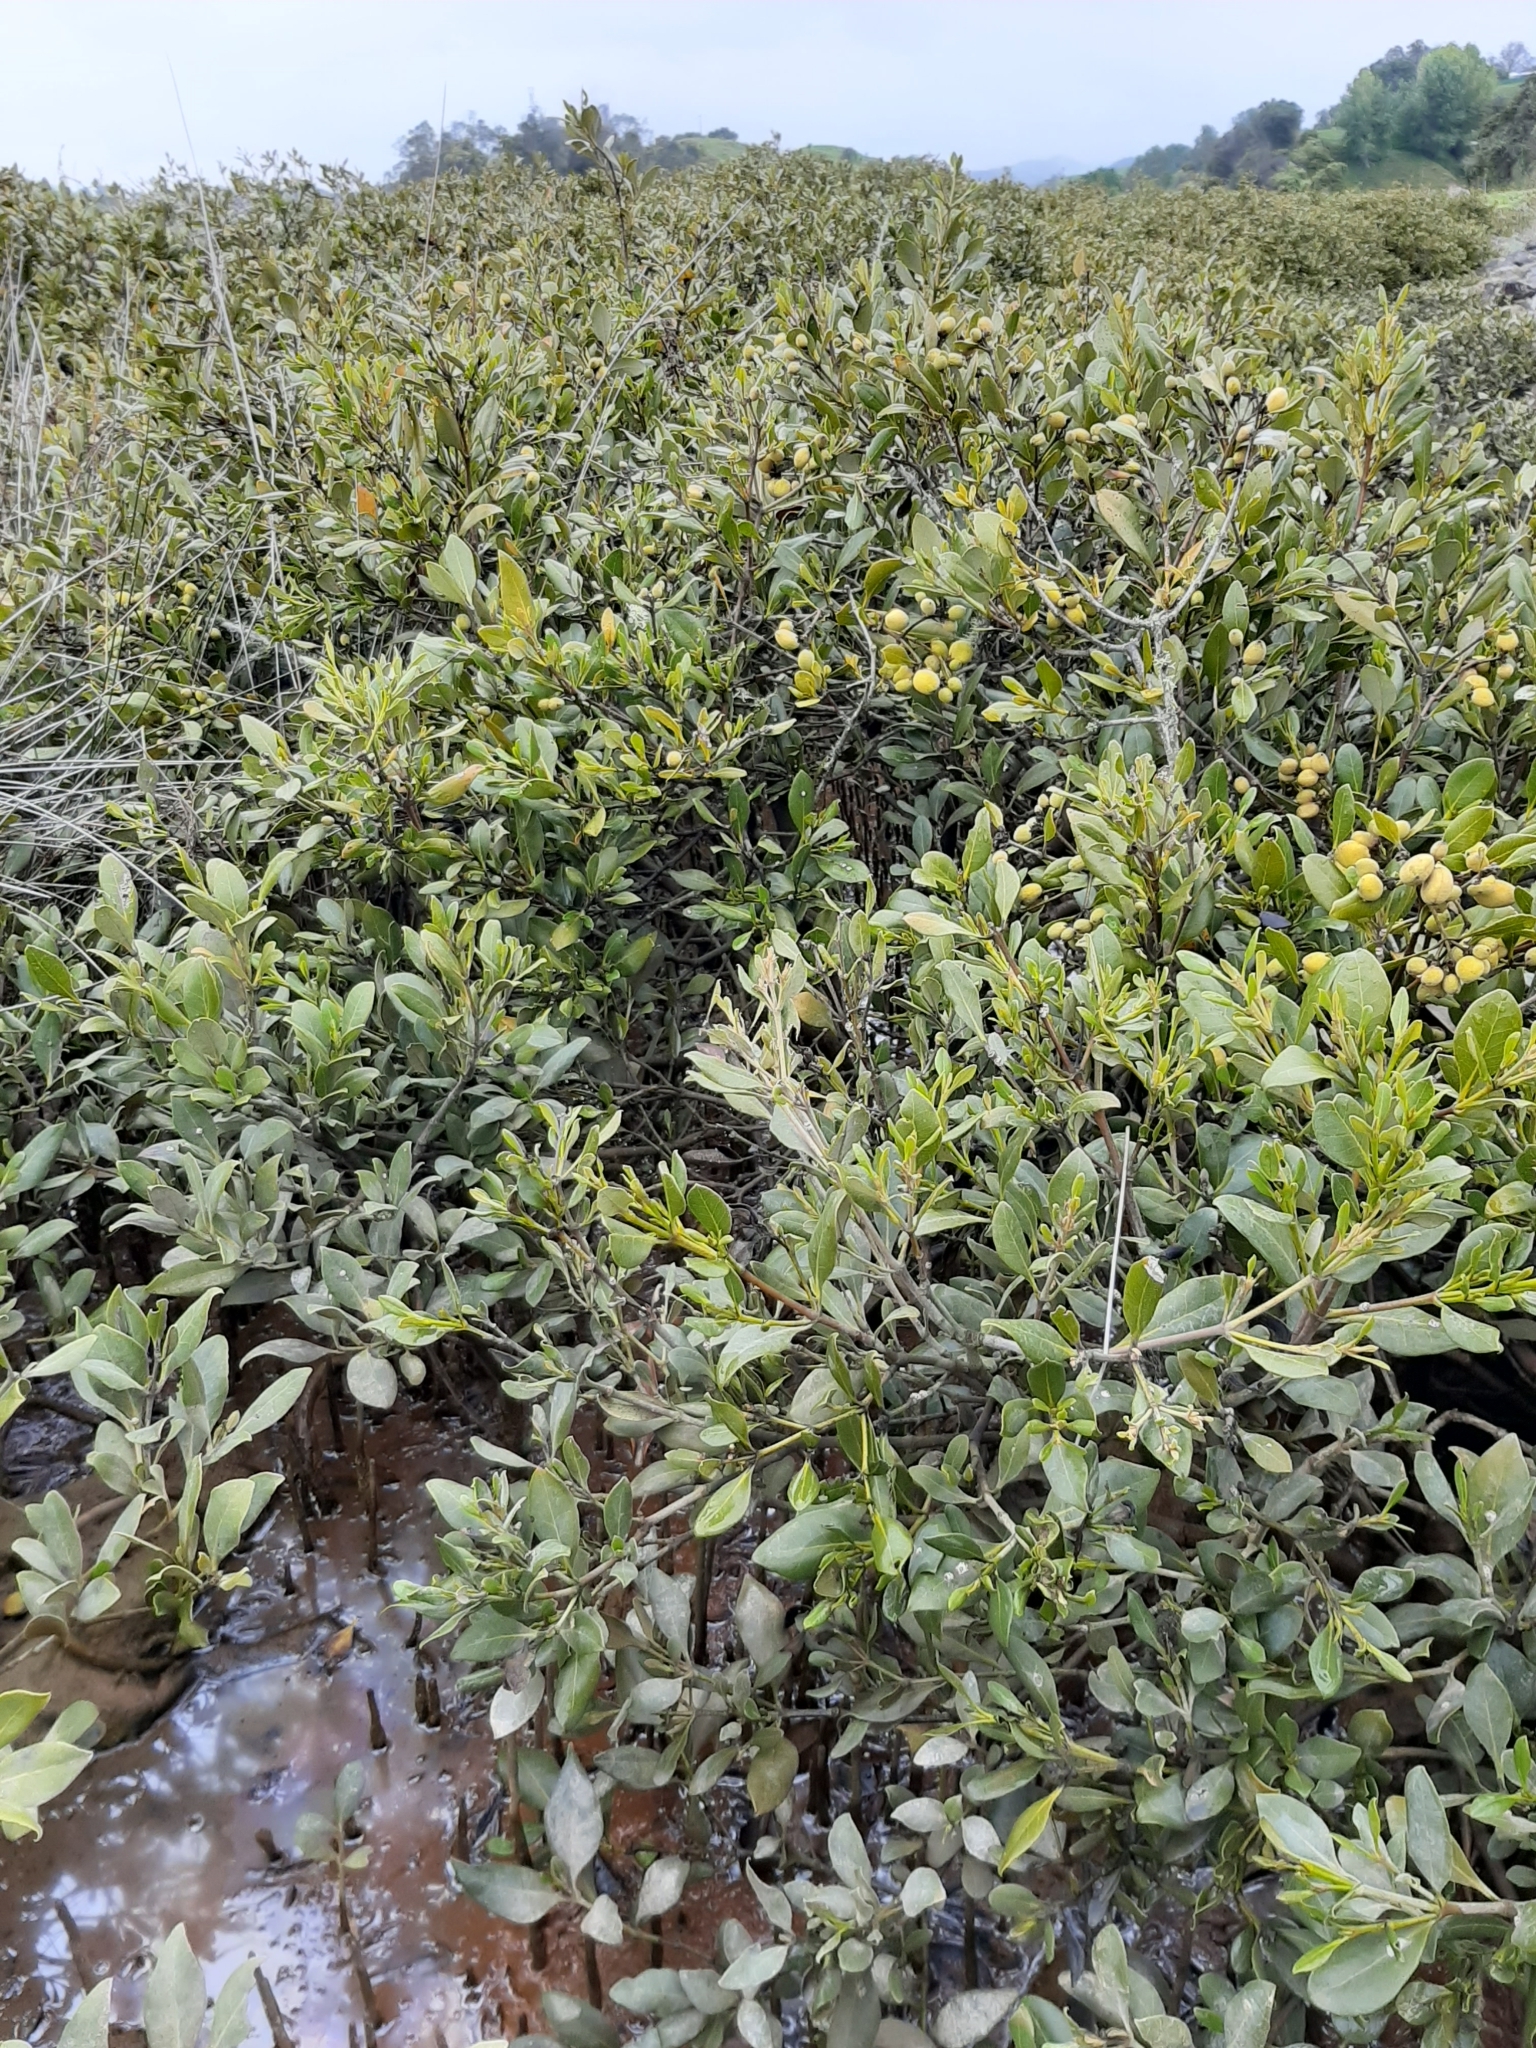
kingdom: Plantae
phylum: Tracheophyta
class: Magnoliopsida
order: Lamiales
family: Acanthaceae
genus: Avicennia
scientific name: Avicennia marina
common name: Gray mangrove
